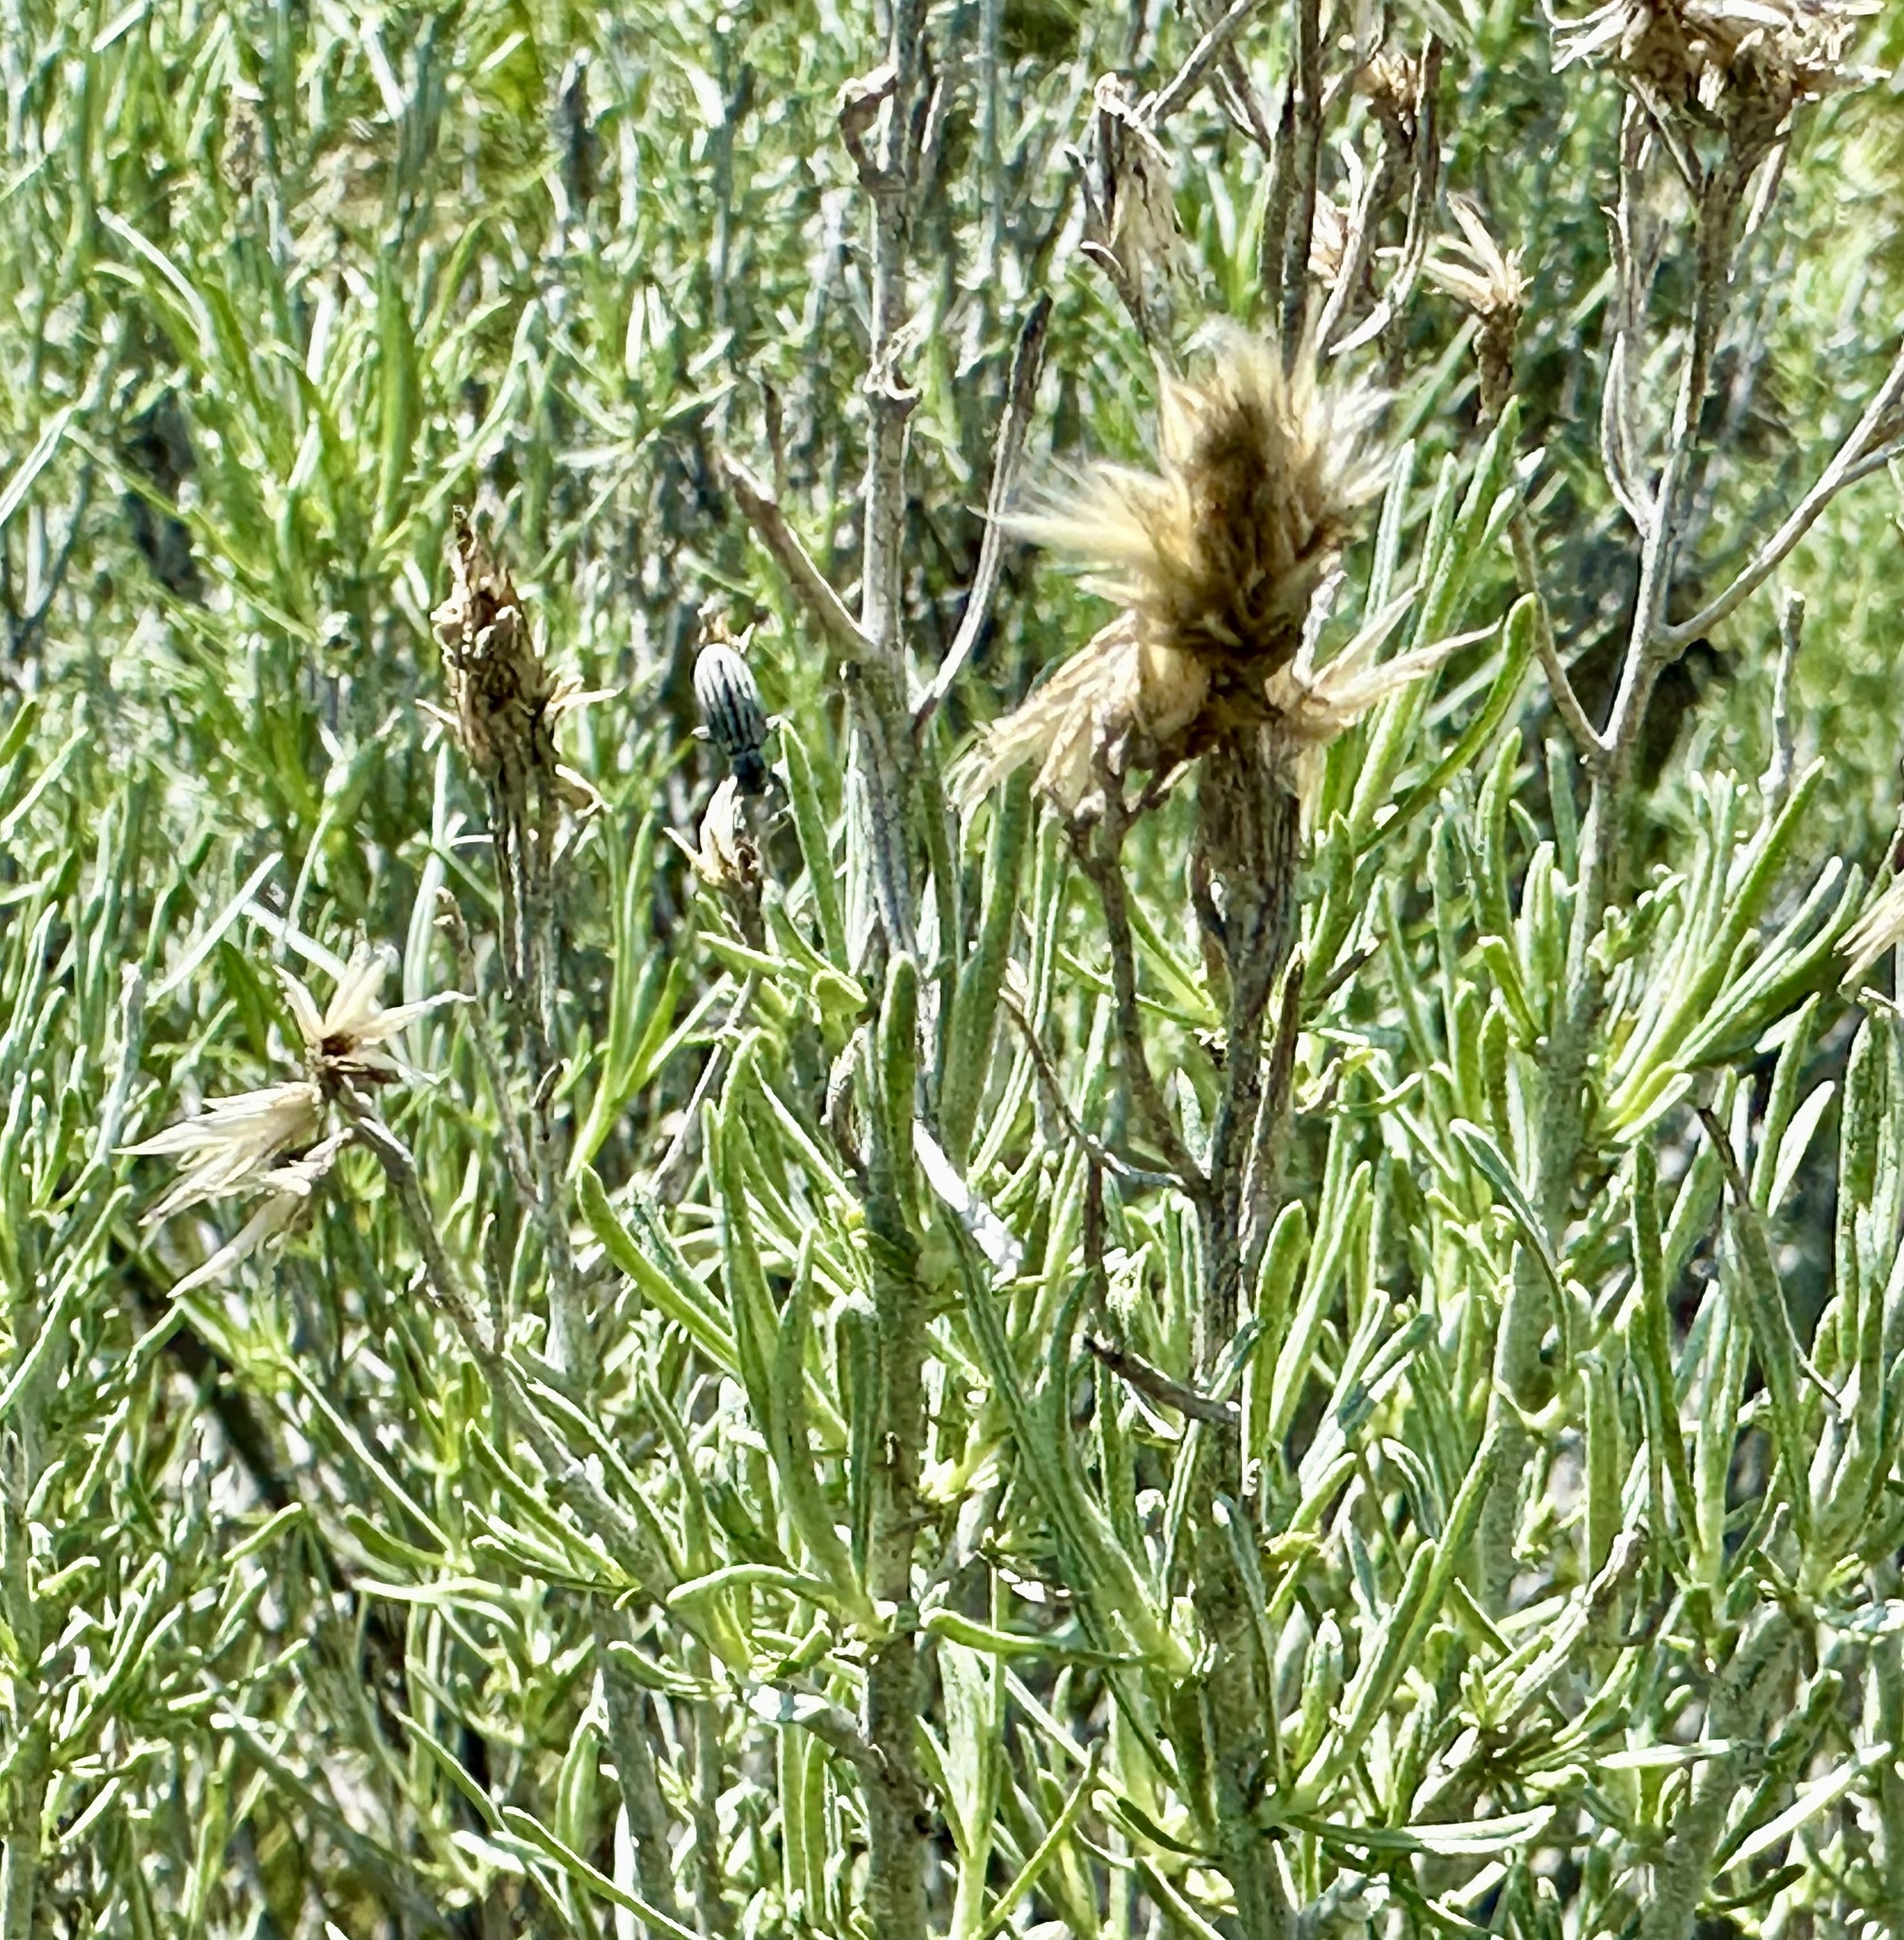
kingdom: Plantae
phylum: Tracheophyta
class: Magnoliopsida
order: Asterales
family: Asteraceae
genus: Ericameria
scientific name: Ericameria nauseosa
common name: Rubber rabbitbrush
